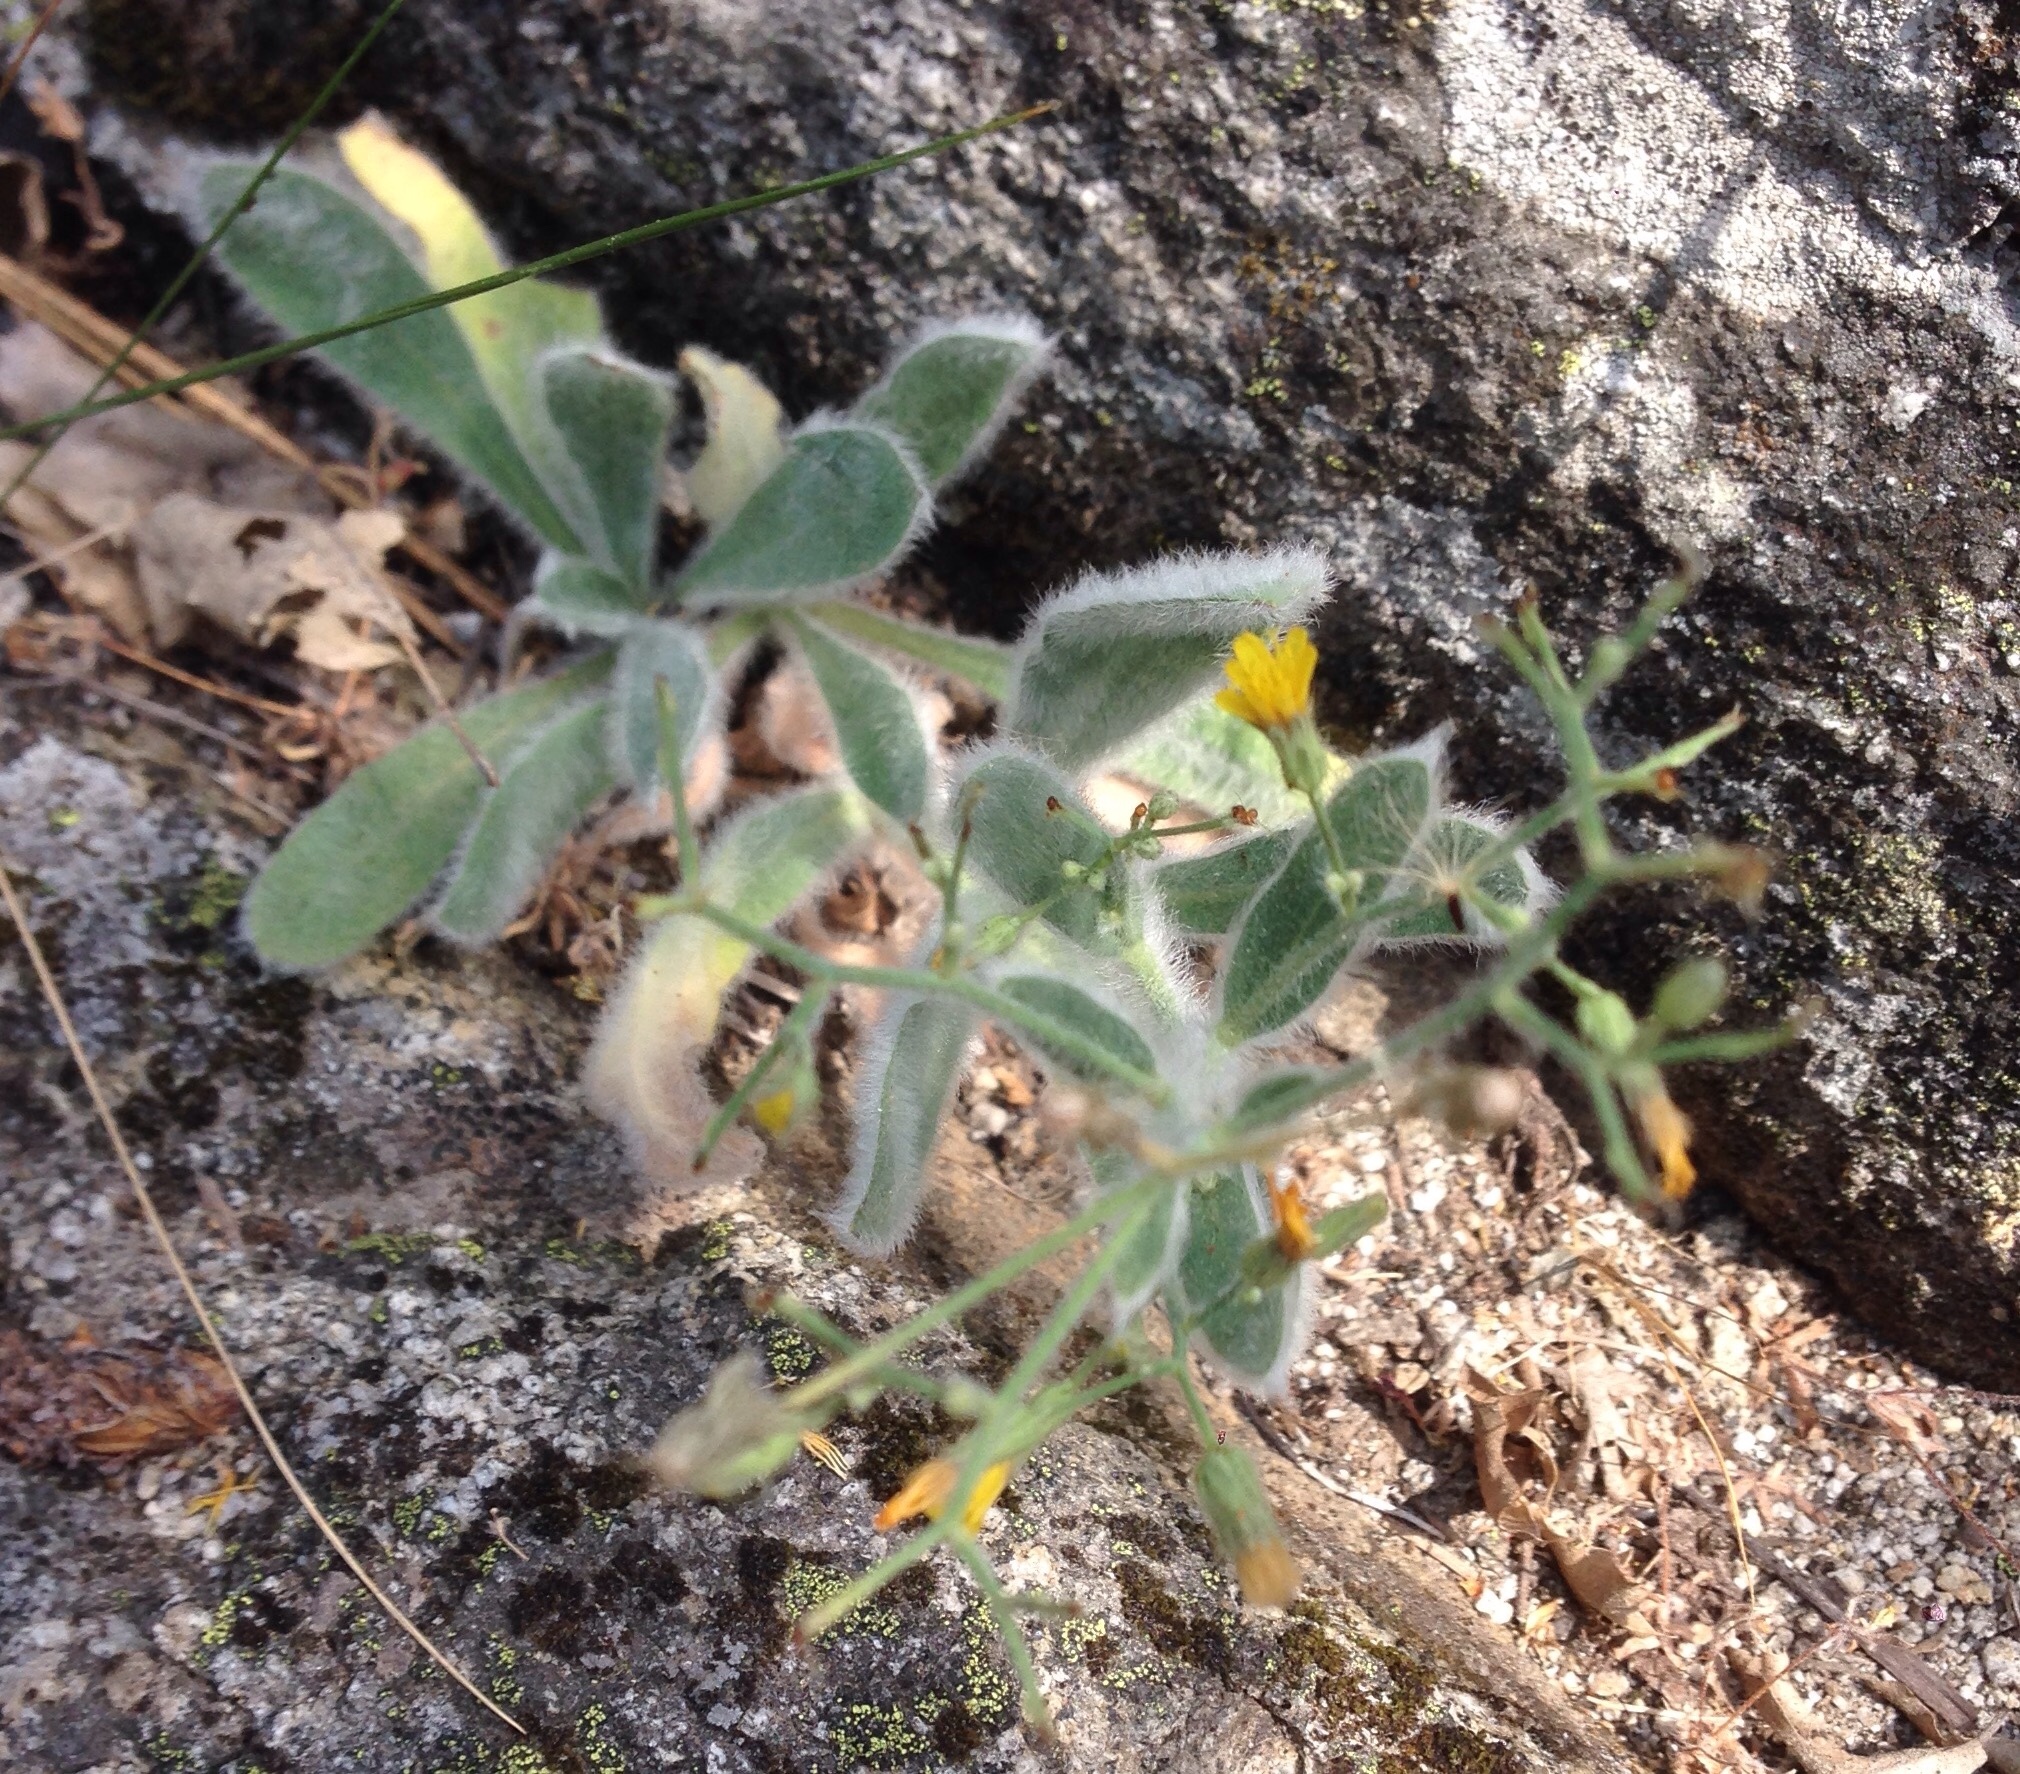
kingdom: Plantae
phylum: Tracheophyta
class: Magnoliopsida
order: Asterales
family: Asteraceae
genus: Hieracium
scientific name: Hieracium horridum
